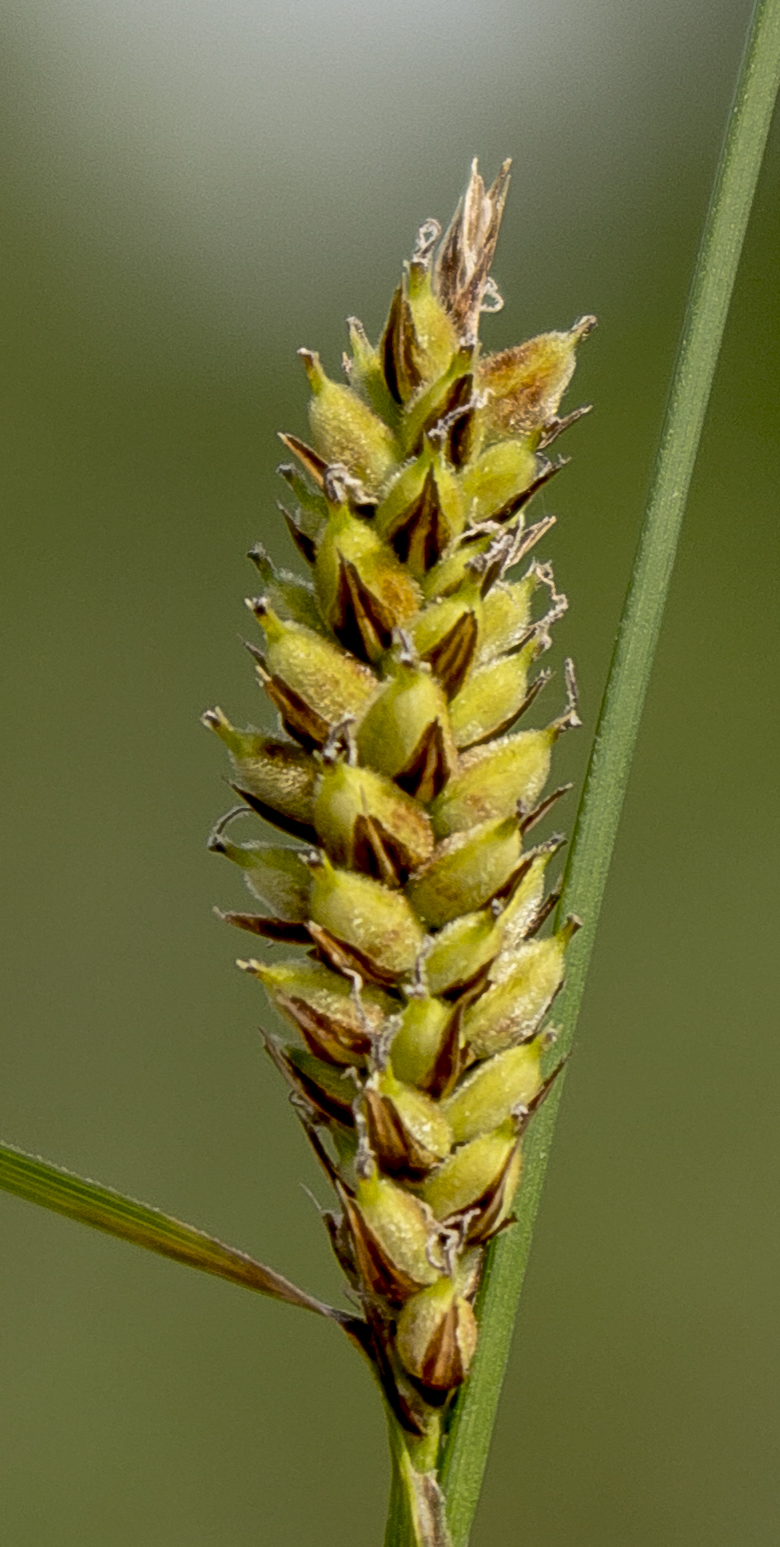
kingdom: Plantae
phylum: Tracheophyta
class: Liliopsida
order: Poales
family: Cyperaceae
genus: Carex
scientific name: Carex pellita
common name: Woolly sedge
